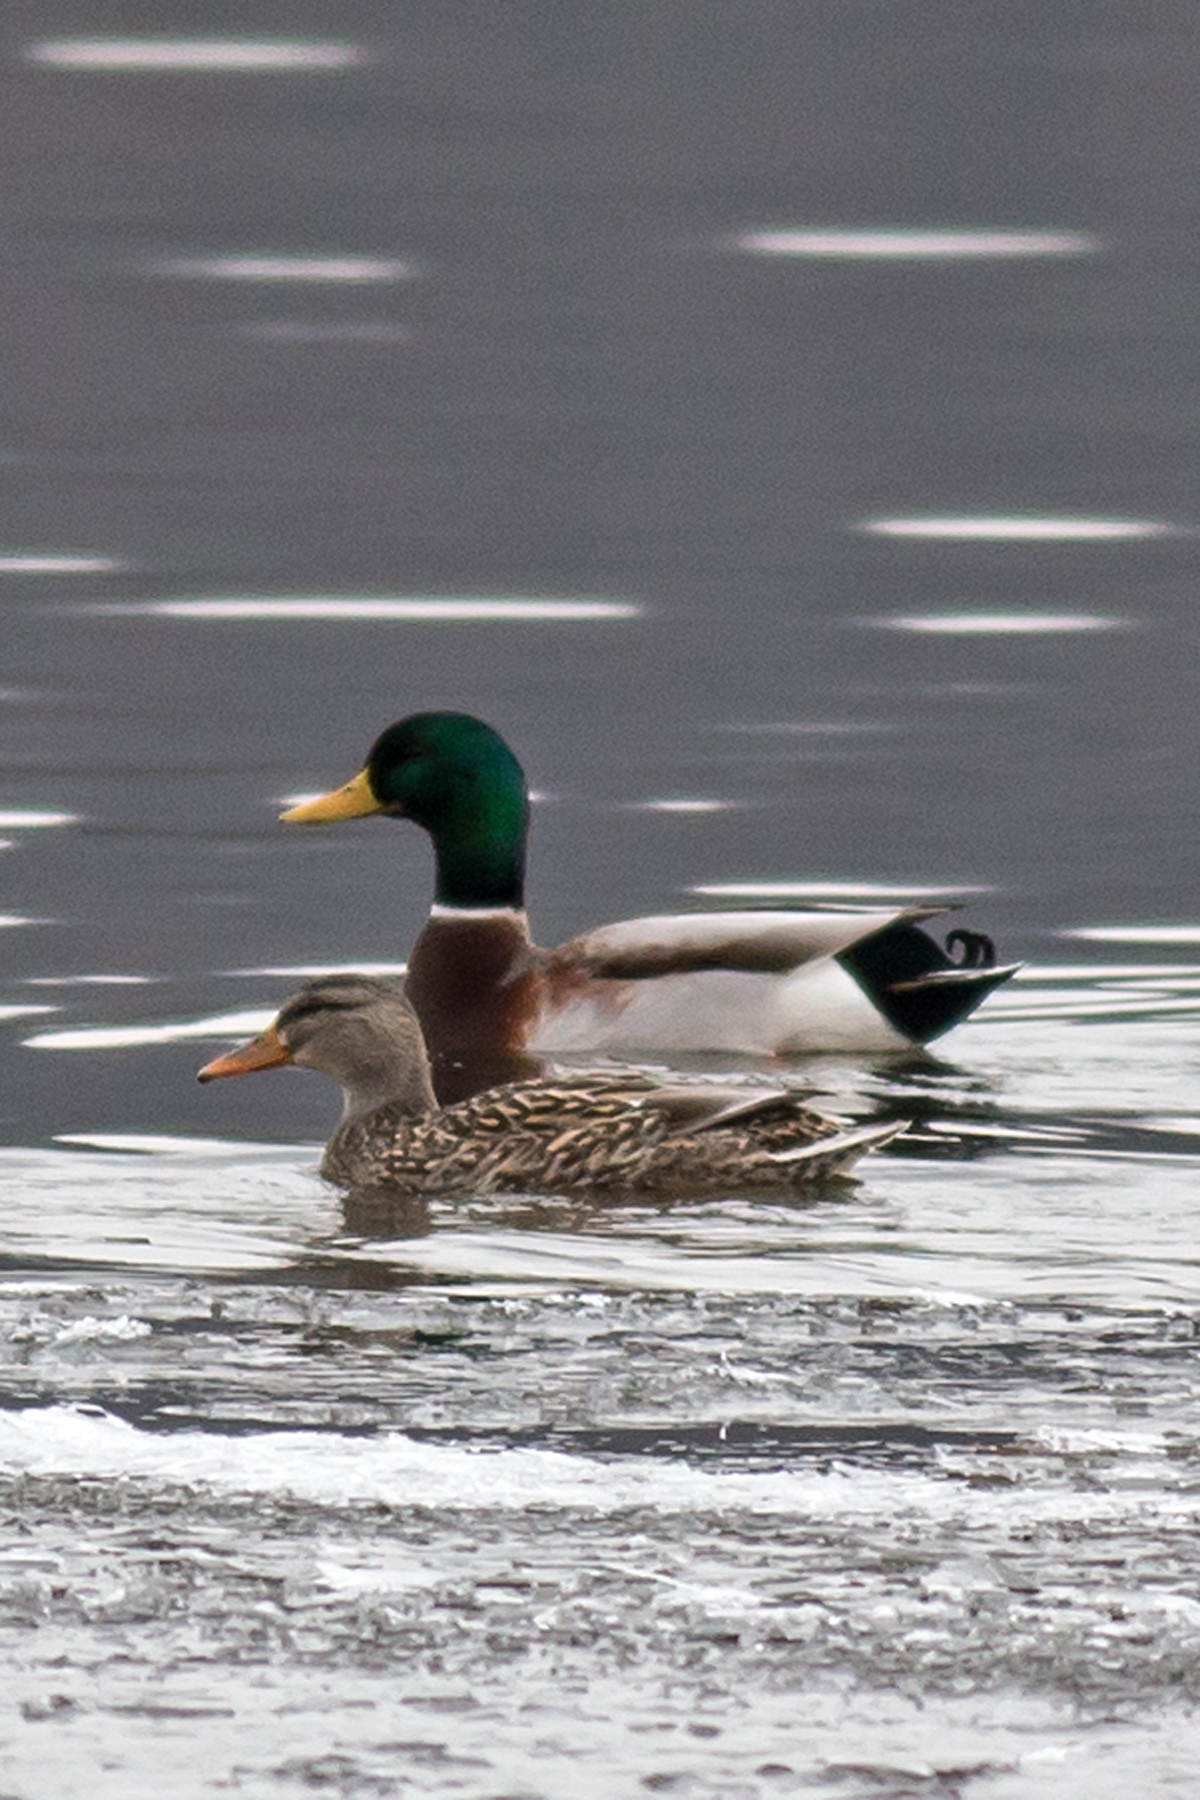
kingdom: Animalia
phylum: Chordata
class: Aves
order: Anseriformes
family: Anatidae
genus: Anas
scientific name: Anas platyrhynchos
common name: Mallard
